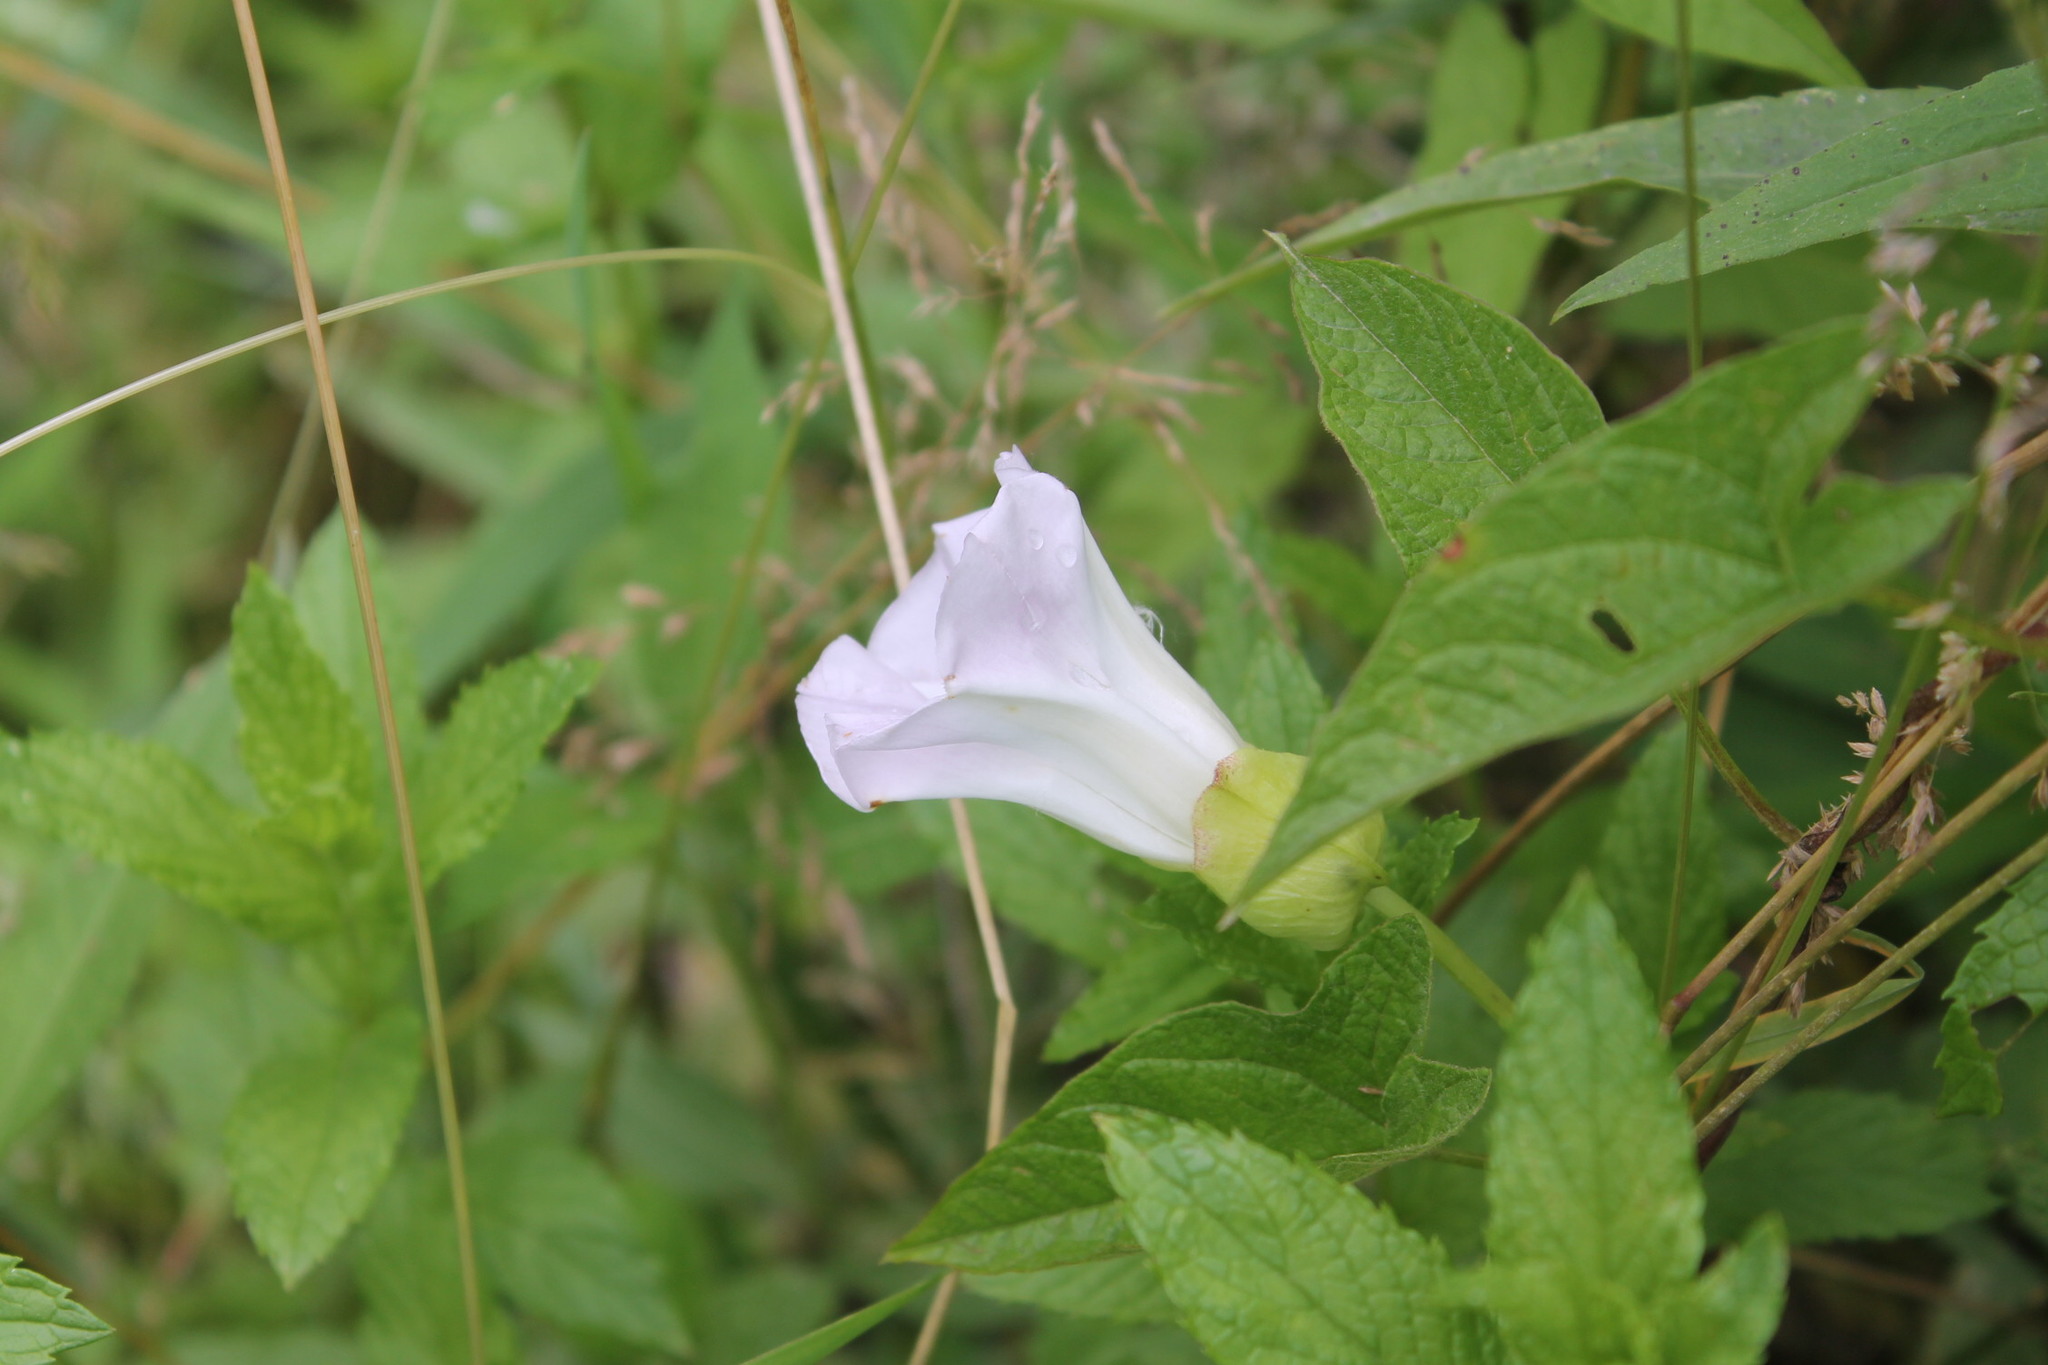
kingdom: Plantae
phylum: Tracheophyta
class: Magnoliopsida
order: Solanales
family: Convolvulaceae
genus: Calystegia
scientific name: Calystegia sepium
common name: Hedge bindweed
